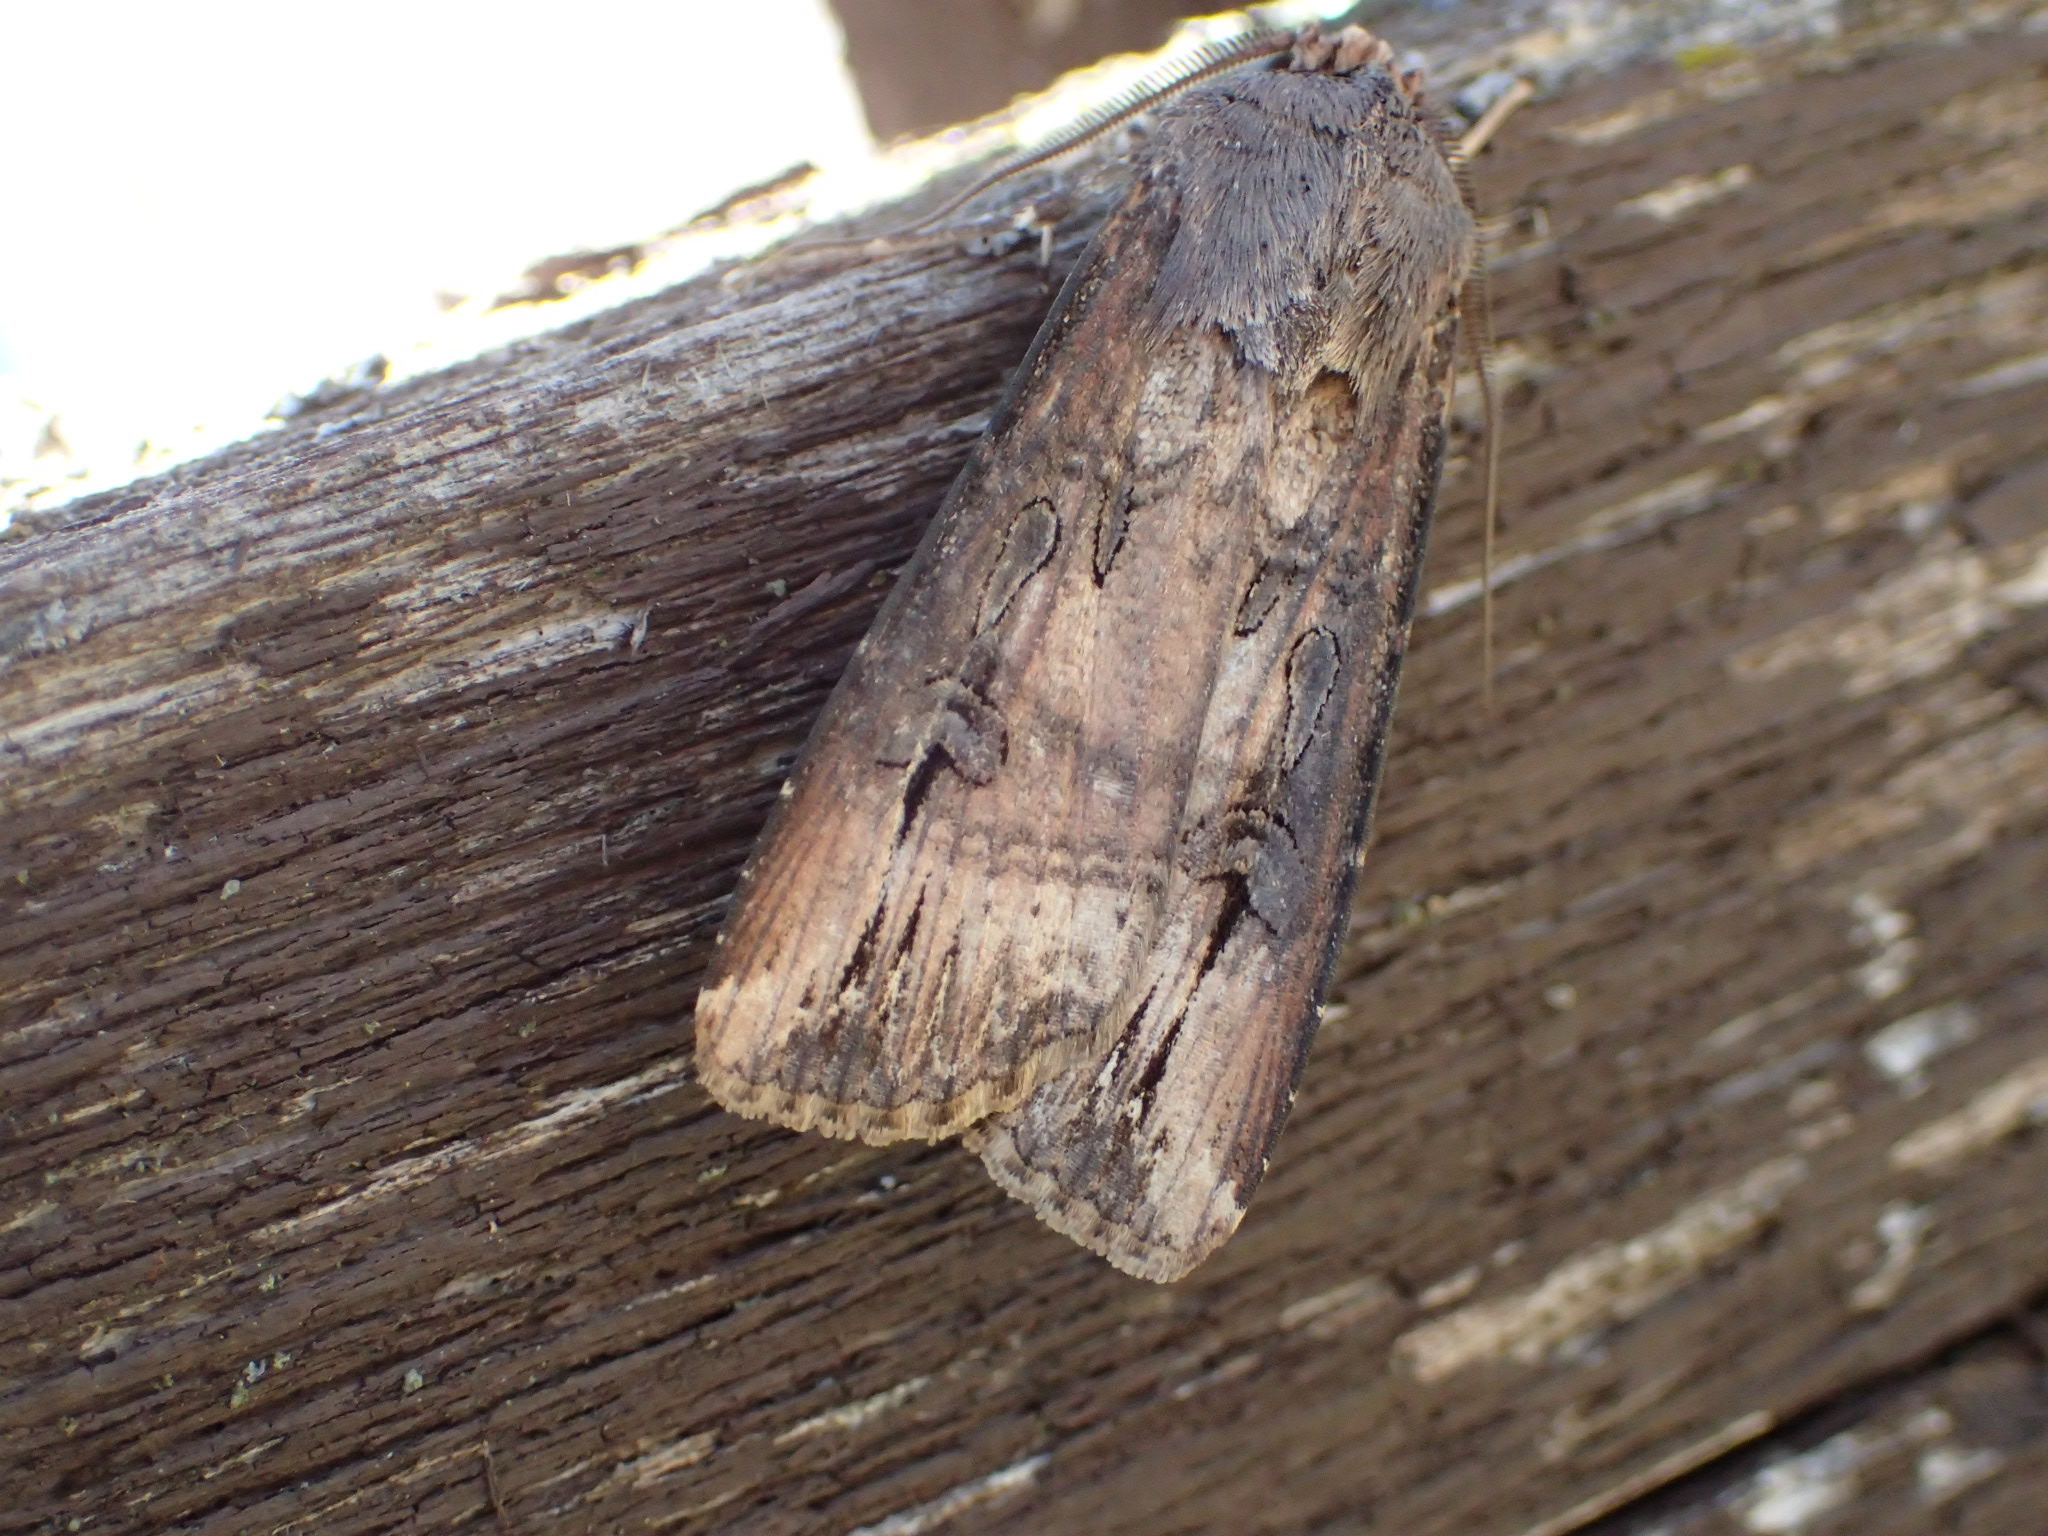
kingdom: Animalia
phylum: Arthropoda
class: Insecta
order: Lepidoptera
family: Noctuidae
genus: Agrotis
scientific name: Agrotis ipsilon
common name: Dark sword-grass
